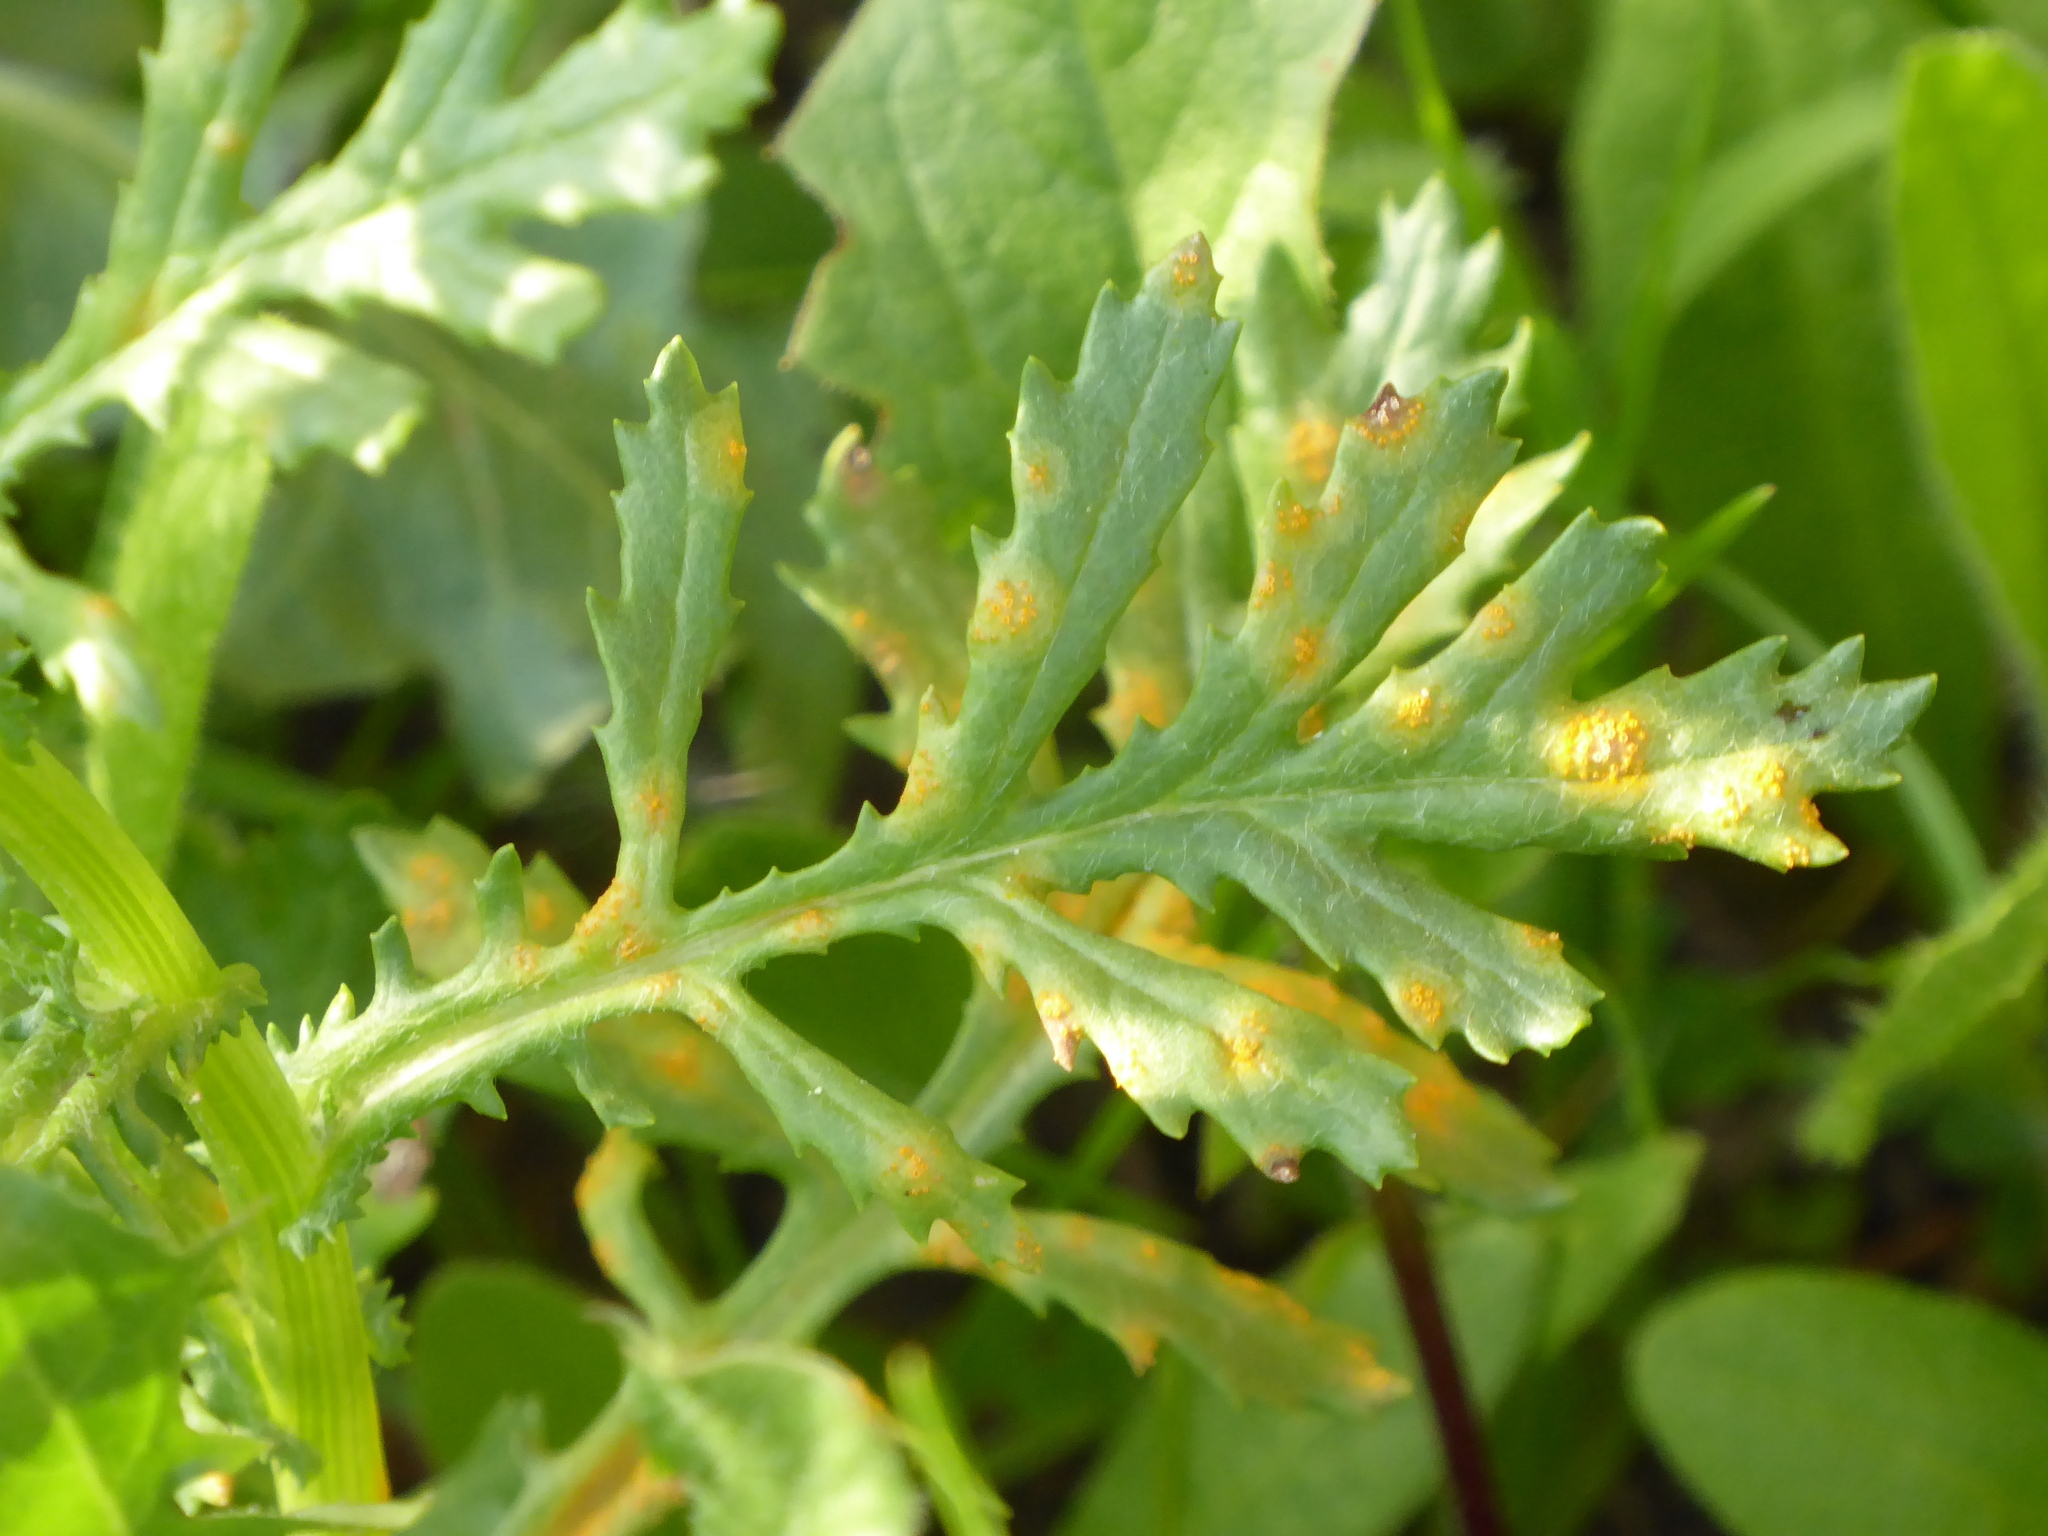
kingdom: Fungi
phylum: Basidiomycota
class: Pucciniomycetes
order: Pucciniales
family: Pucciniaceae
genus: Puccinia
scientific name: Puccinia lagenophorae
